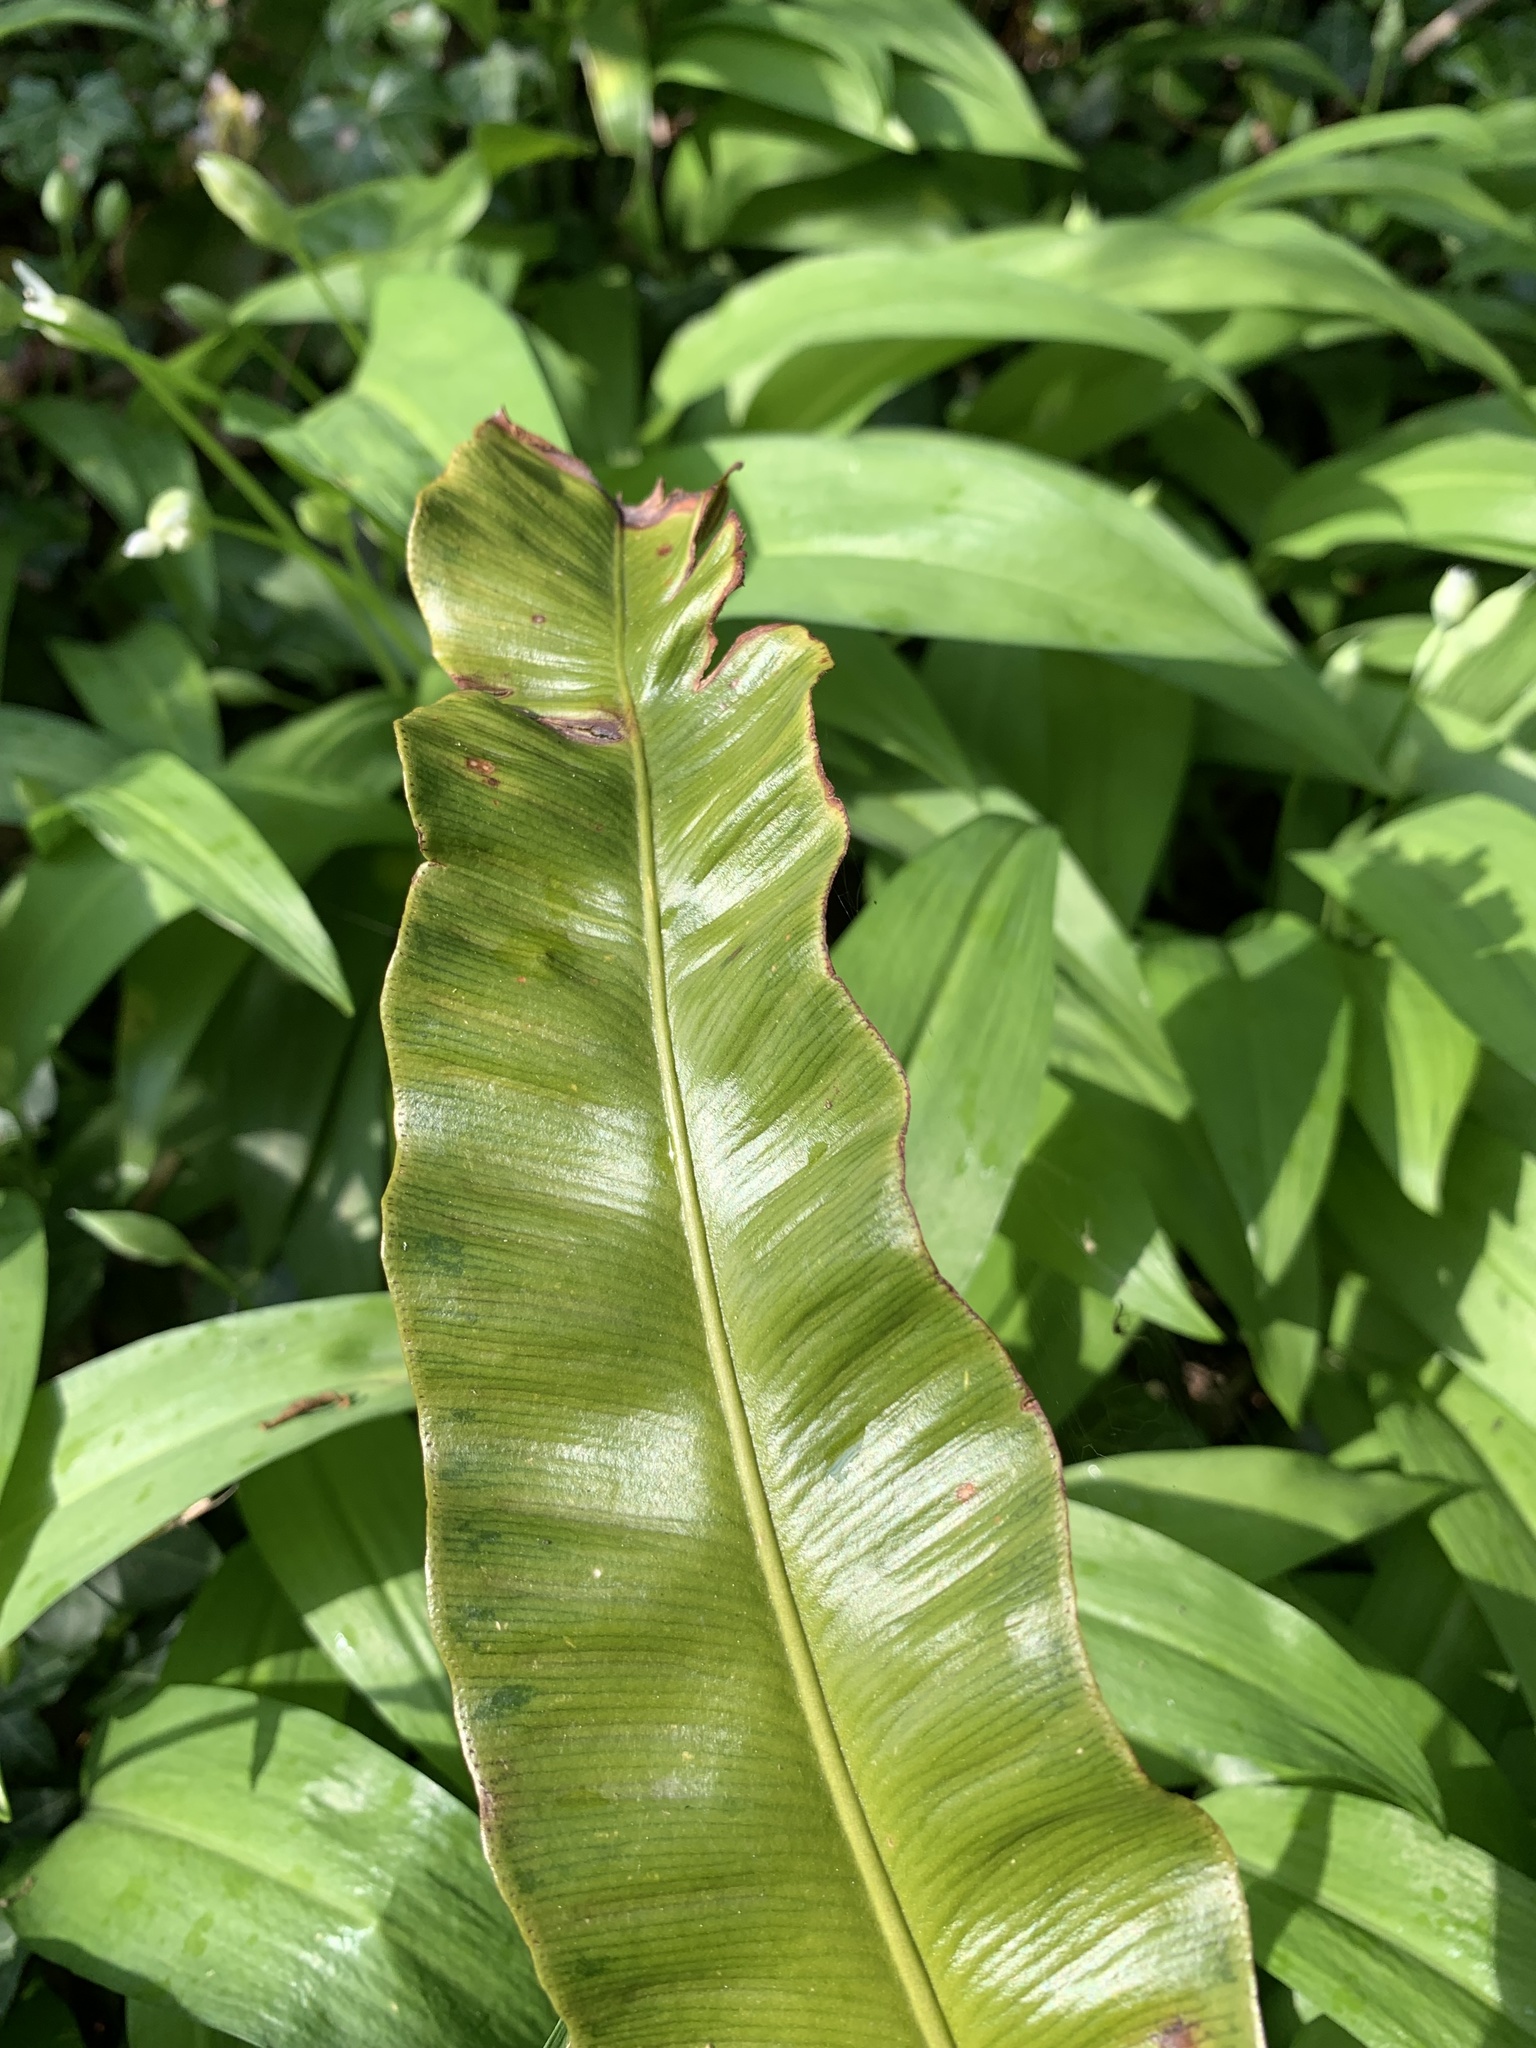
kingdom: Plantae
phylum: Tracheophyta
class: Polypodiopsida
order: Polypodiales
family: Aspleniaceae
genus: Asplenium
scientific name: Asplenium scolopendrium
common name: Hart's-tongue fern
